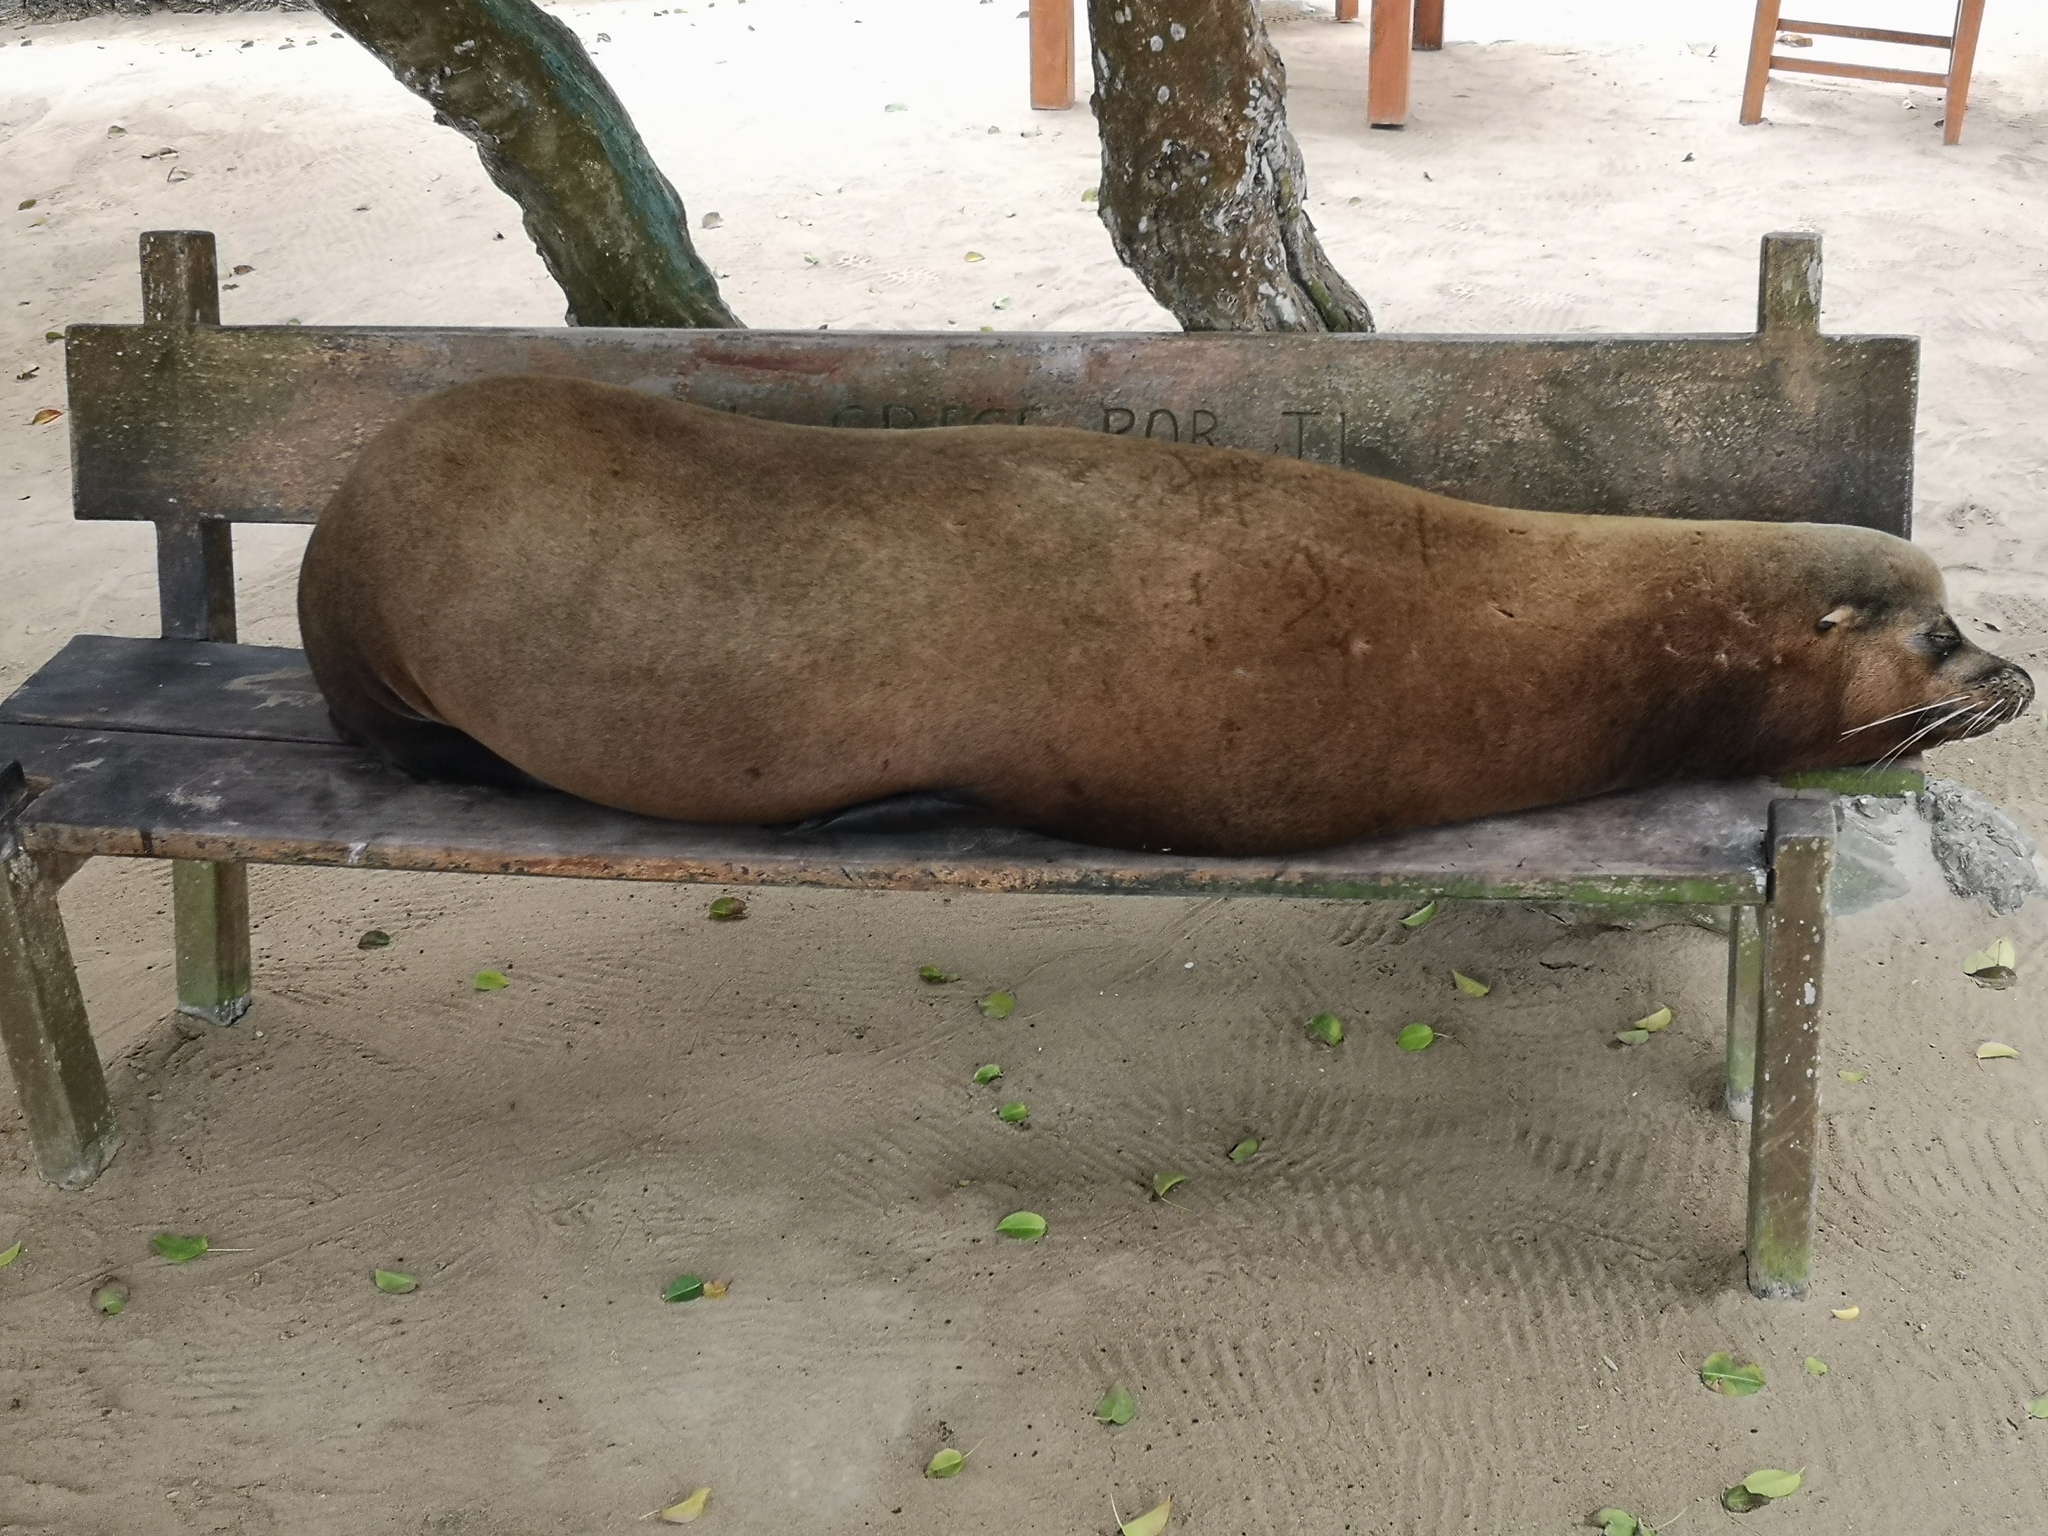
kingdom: Animalia
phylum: Chordata
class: Mammalia
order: Carnivora
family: Otariidae
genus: Zalophus
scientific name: Zalophus wollebaeki
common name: Galapagos sea lion
